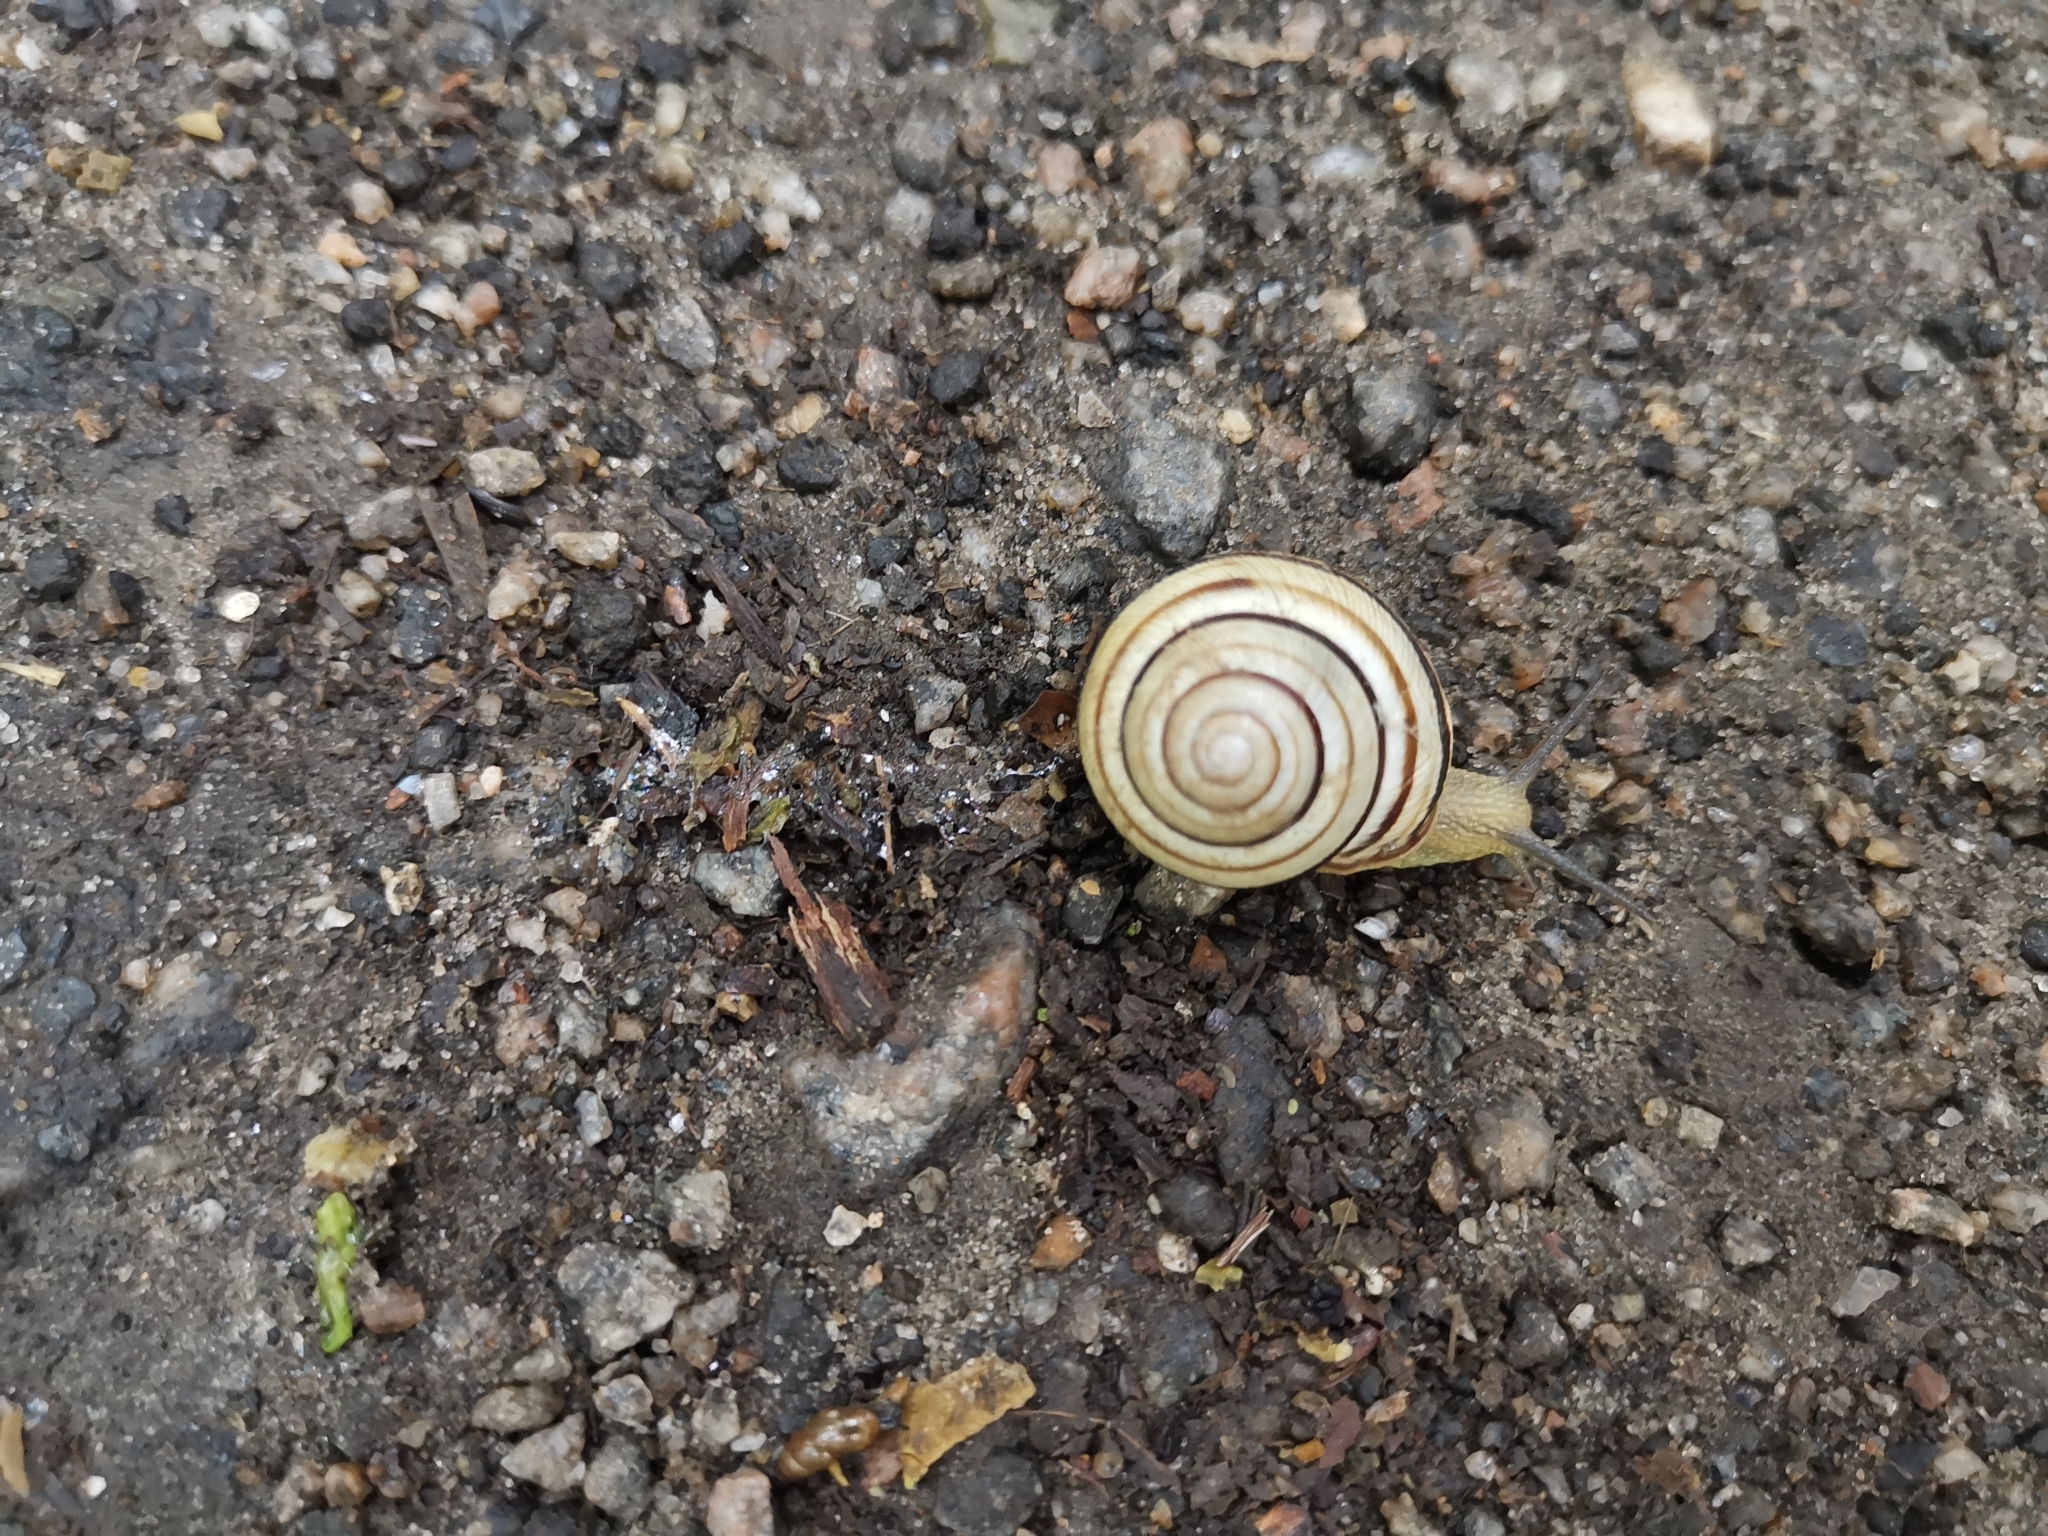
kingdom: Animalia
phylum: Mollusca
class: Gastropoda
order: Stylommatophora
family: Helicidae
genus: Caucasotachea
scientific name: Caucasotachea vindobonensis
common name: European helicid land snail
